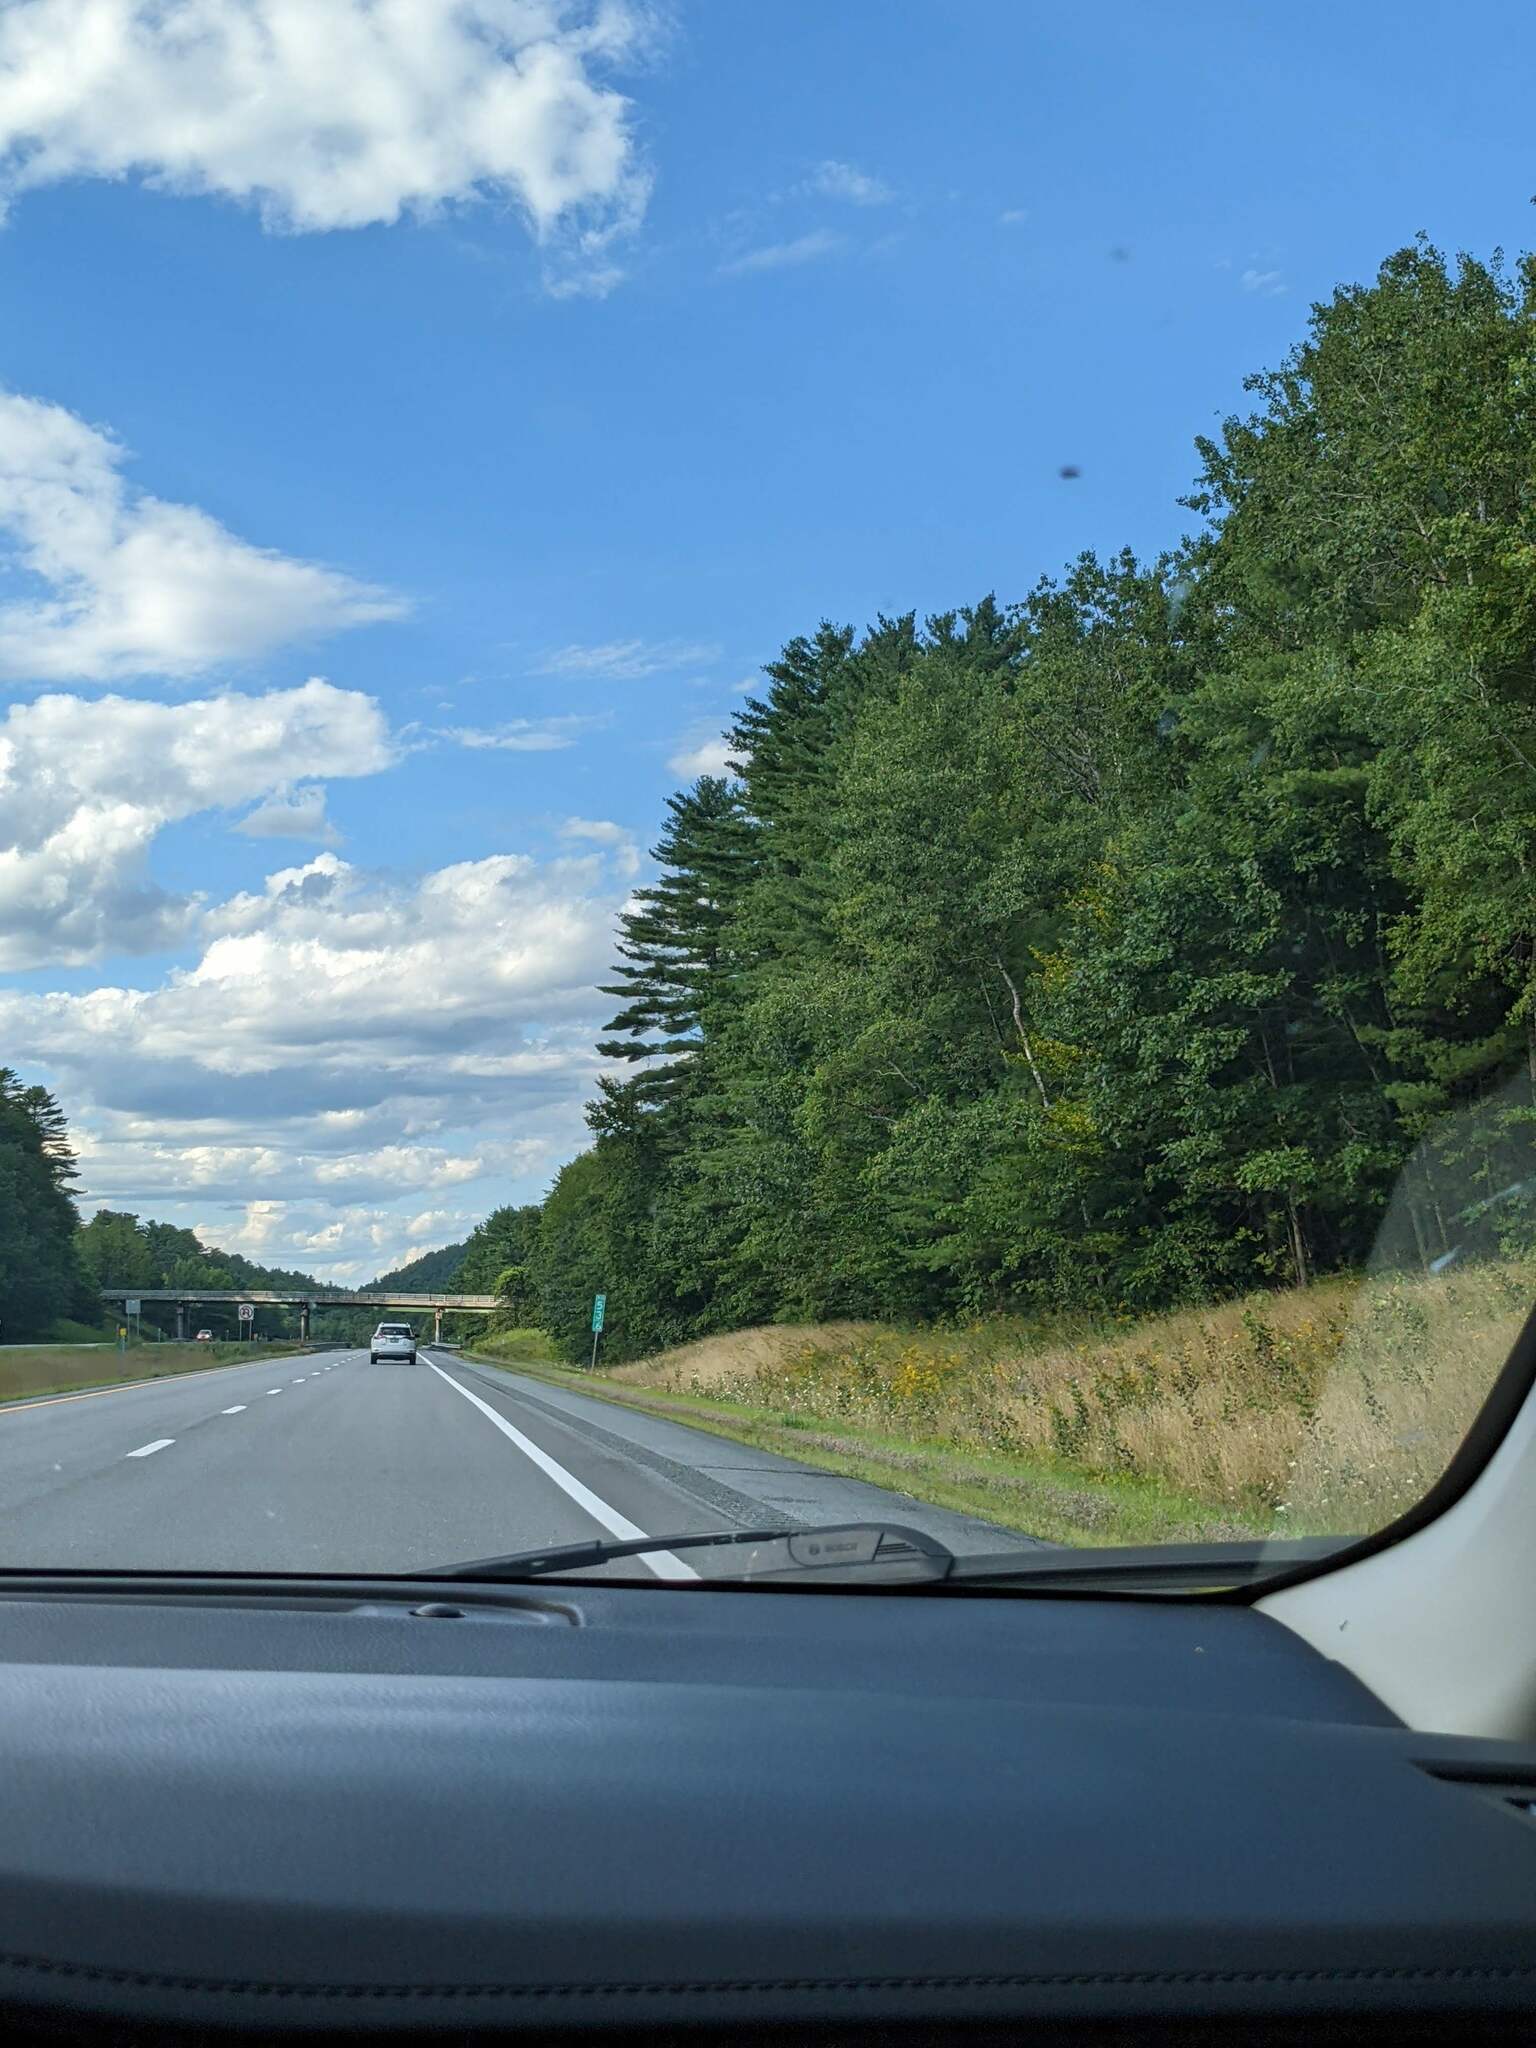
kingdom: Plantae
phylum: Tracheophyta
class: Pinopsida
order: Pinales
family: Pinaceae
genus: Pinus
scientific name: Pinus strobus
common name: Weymouth pine
